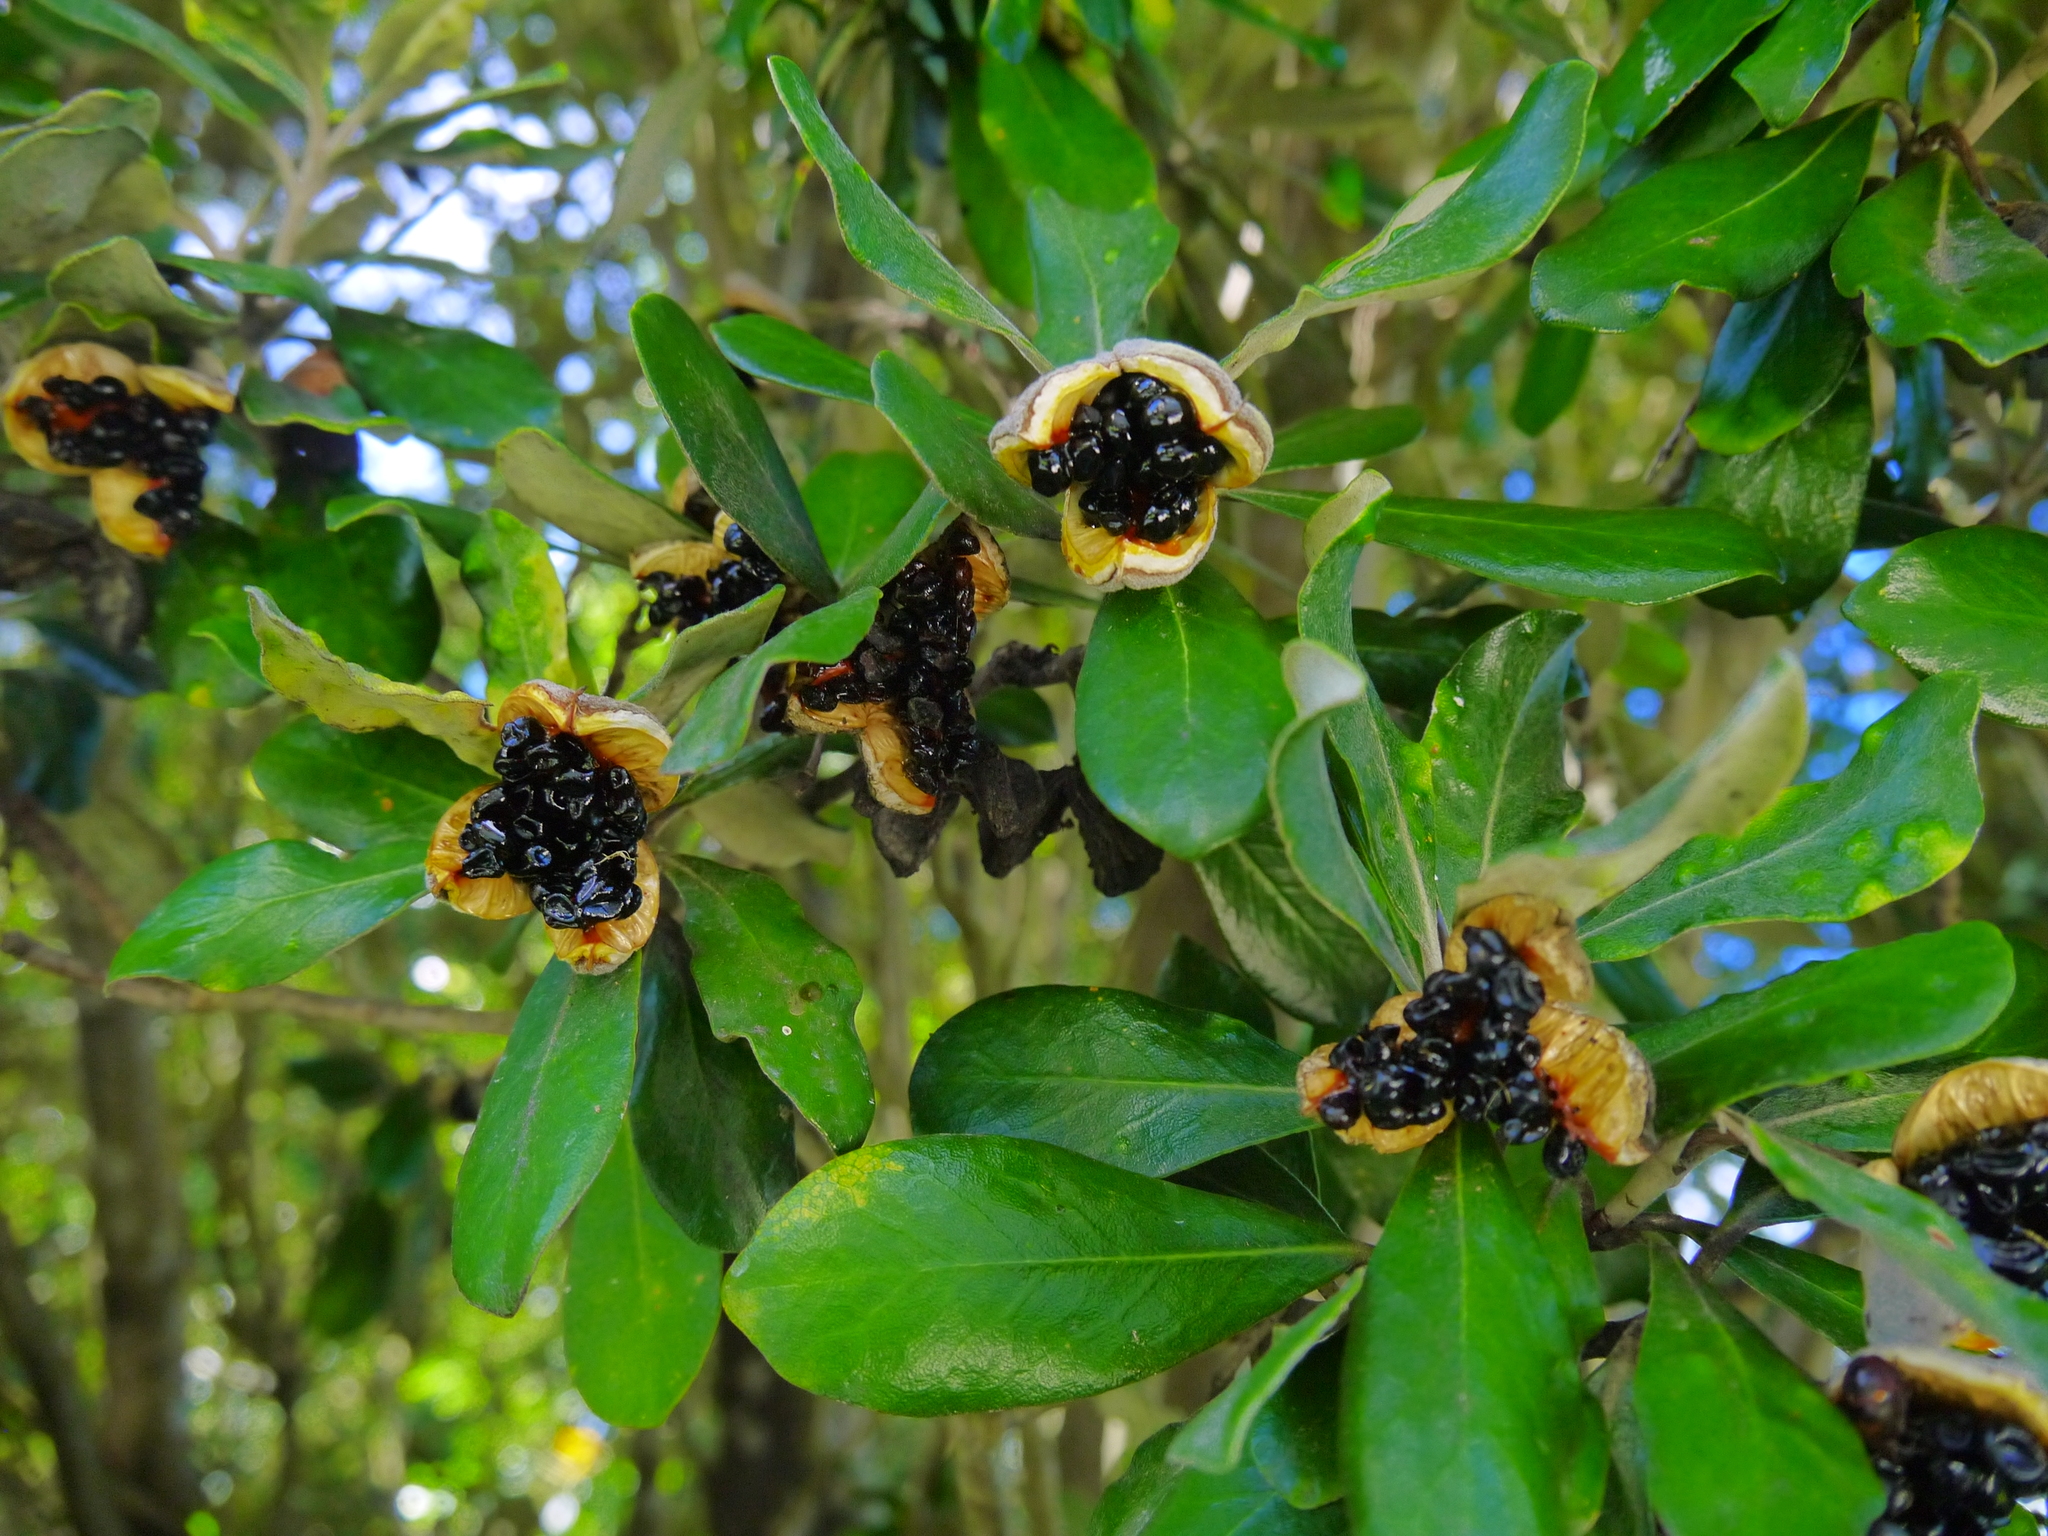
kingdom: Plantae
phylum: Tracheophyta
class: Magnoliopsida
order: Apiales
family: Pittosporaceae
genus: Pittosporum
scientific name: Pittosporum crassifolium
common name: Karo
